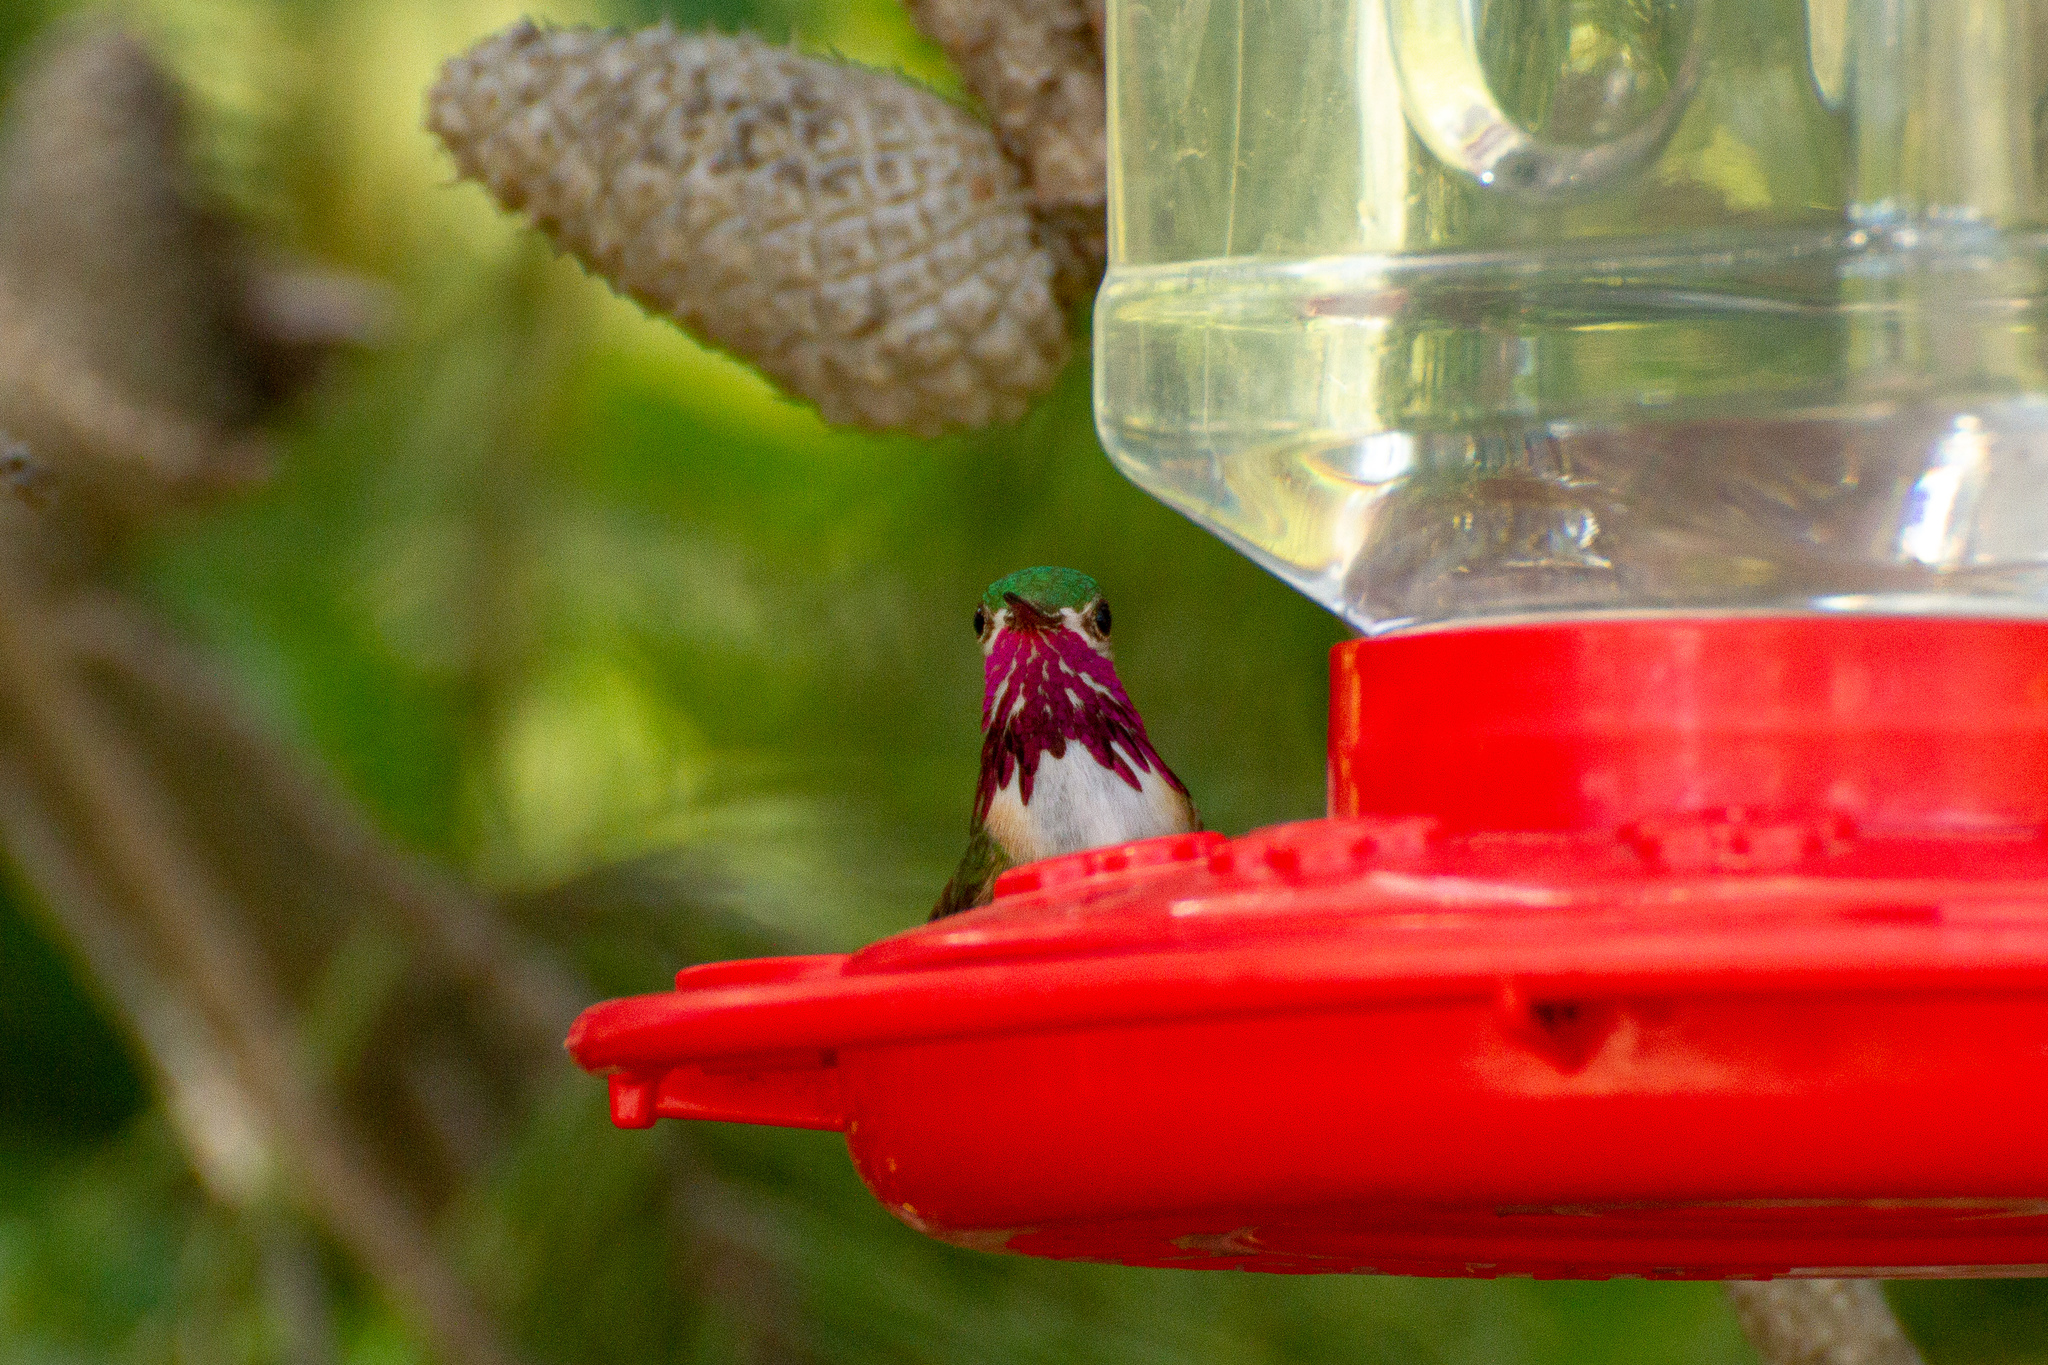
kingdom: Animalia
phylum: Chordata
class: Aves
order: Apodiformes
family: Trochilidae
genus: Selasphorus
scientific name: Selasphorus calliope
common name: Calliope hummingbird
